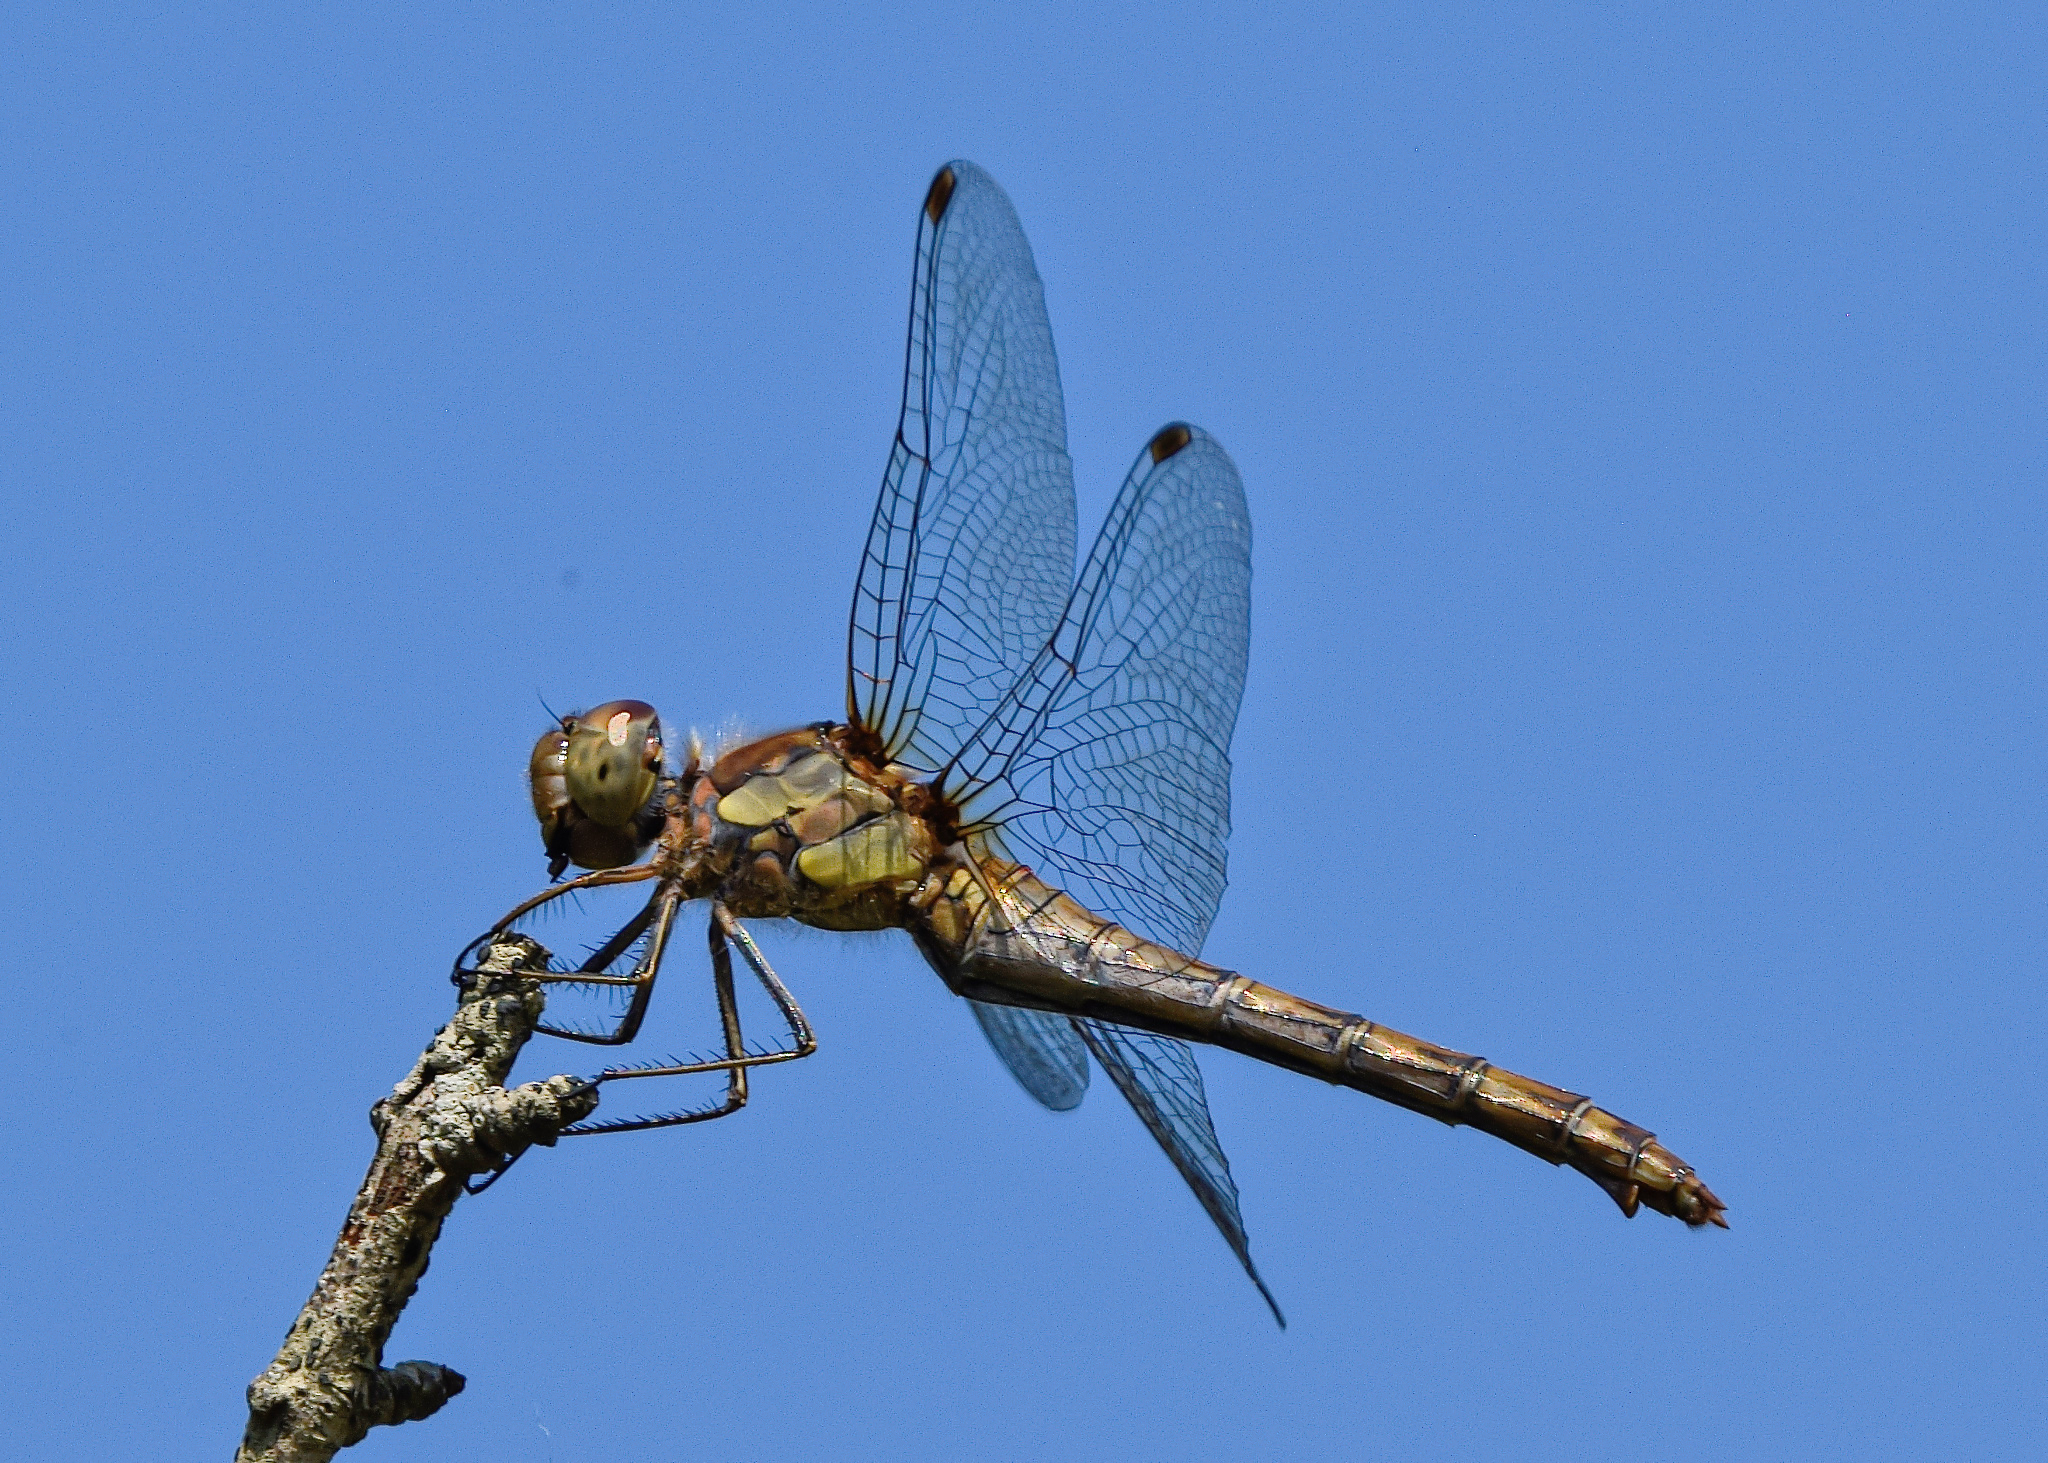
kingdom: Animalia
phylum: Arthropoda
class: Insecta
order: Odonata
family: Libellulidae
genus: Sympetrum
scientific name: Sympetrum striolatum
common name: Common darter
